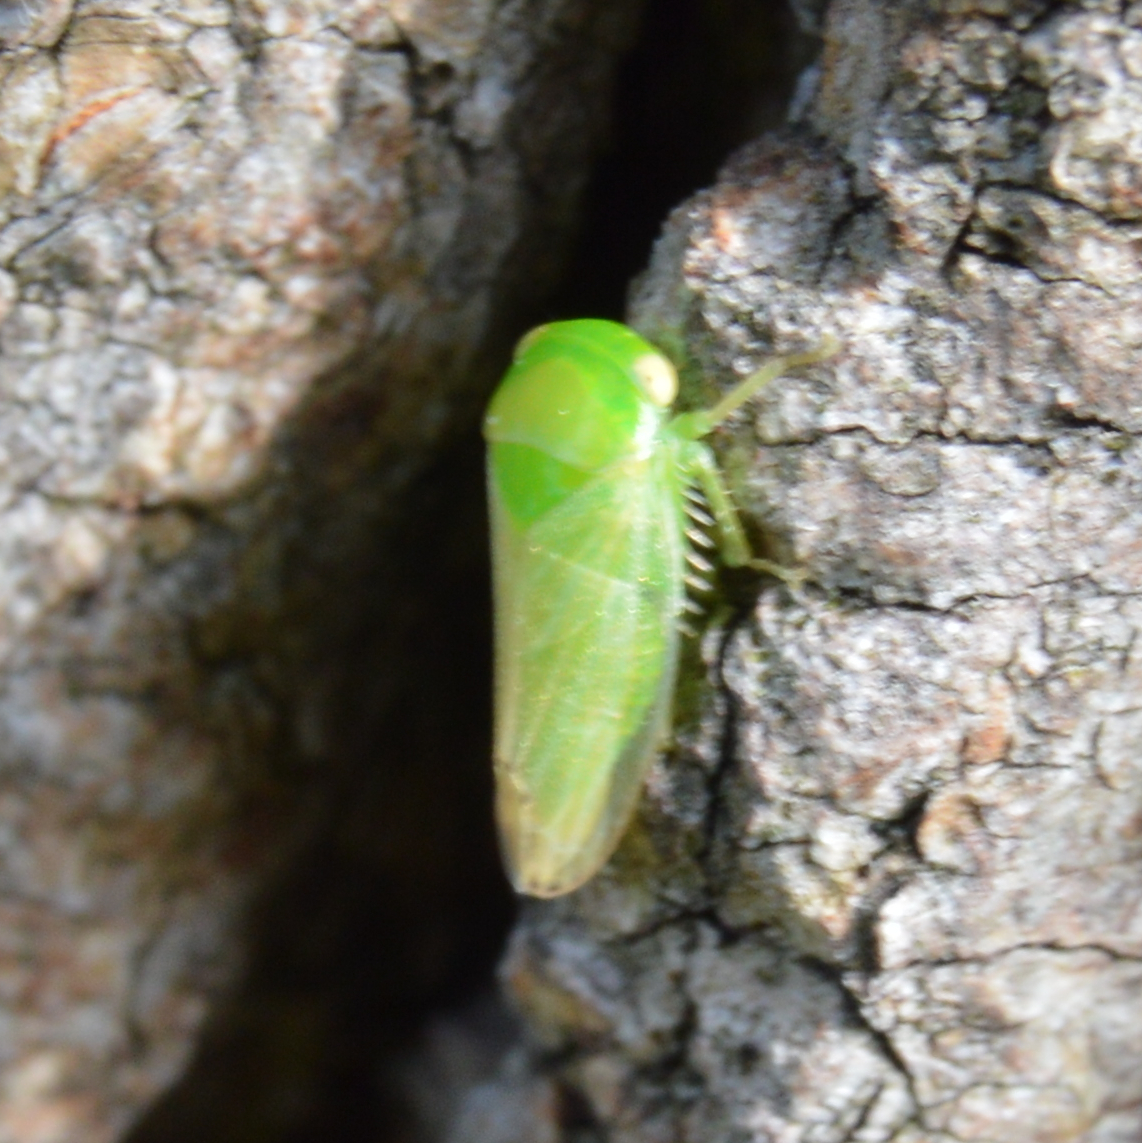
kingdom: Animalia
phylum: Arthropoda
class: Insecta
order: Hemiptera
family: Cicadellidae
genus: Stragania
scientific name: Stragania apicalis
